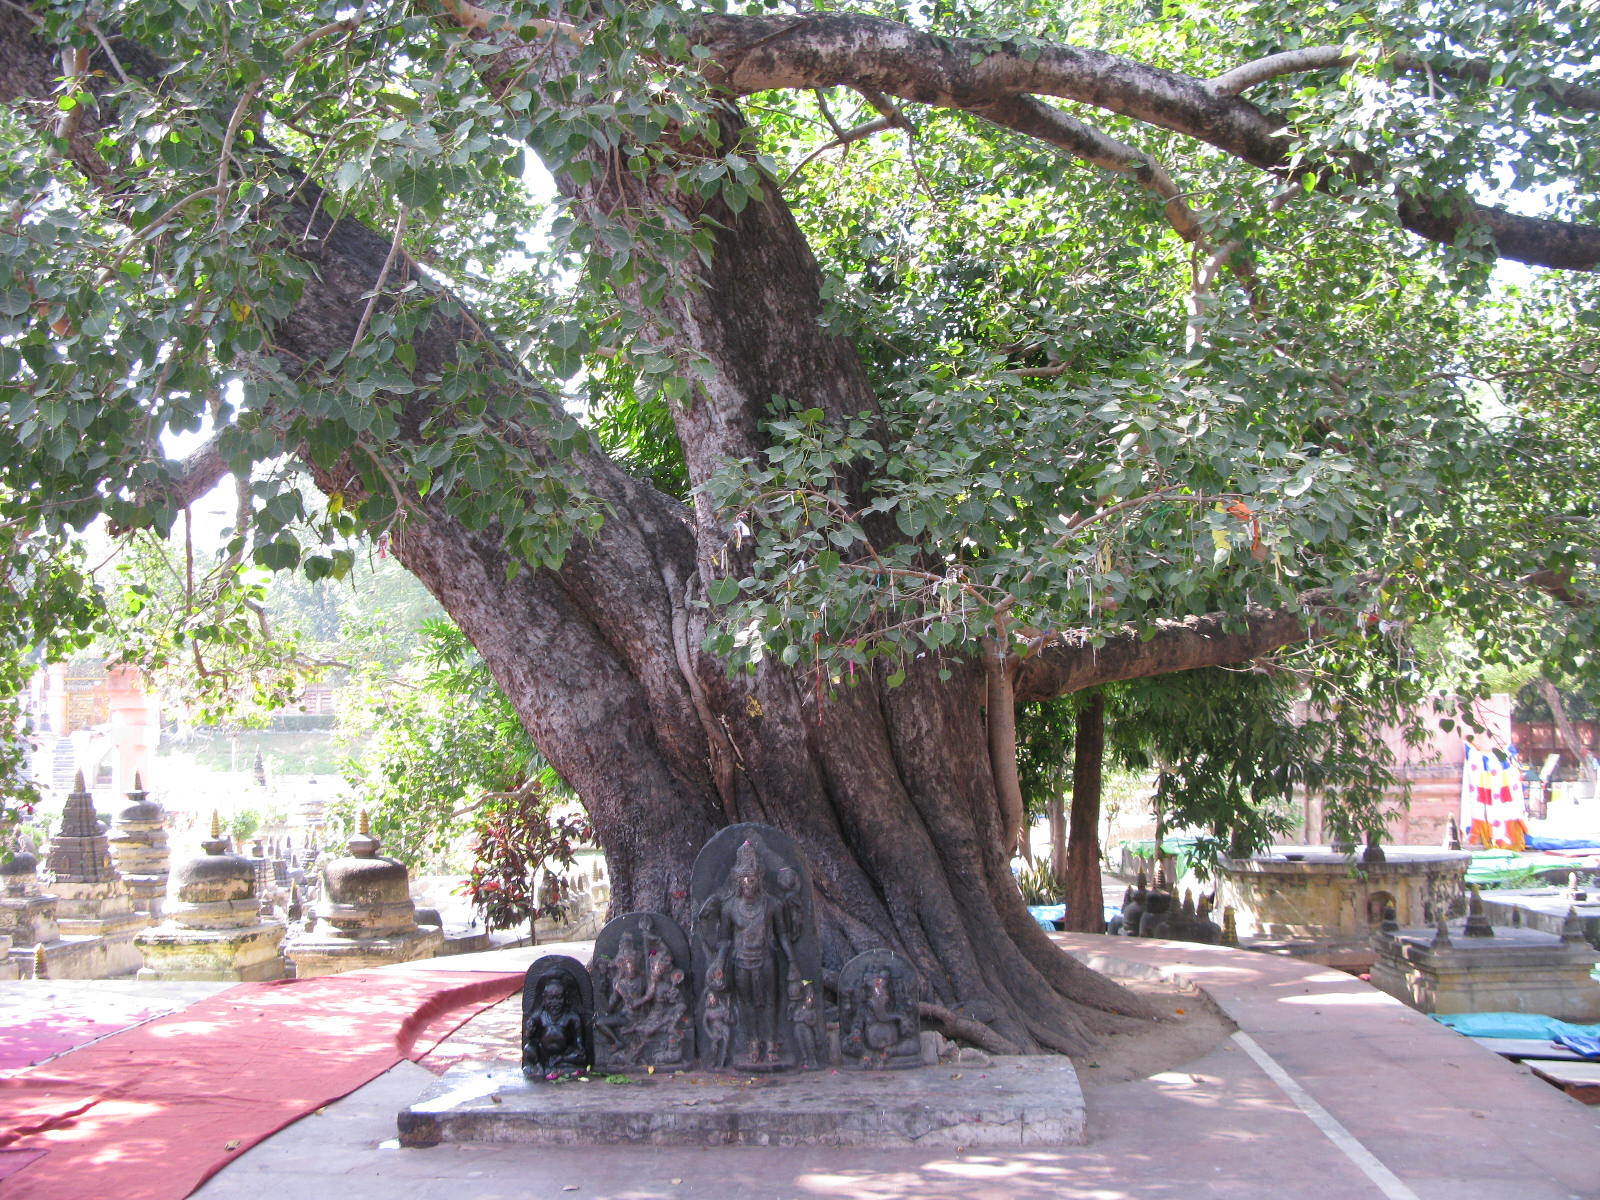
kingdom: Plantae
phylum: Tracheophyta
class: Magnoliopsida
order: Rosales
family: Moraceae
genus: Ficus
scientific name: Ficus religiosa
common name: Bodhi tree
